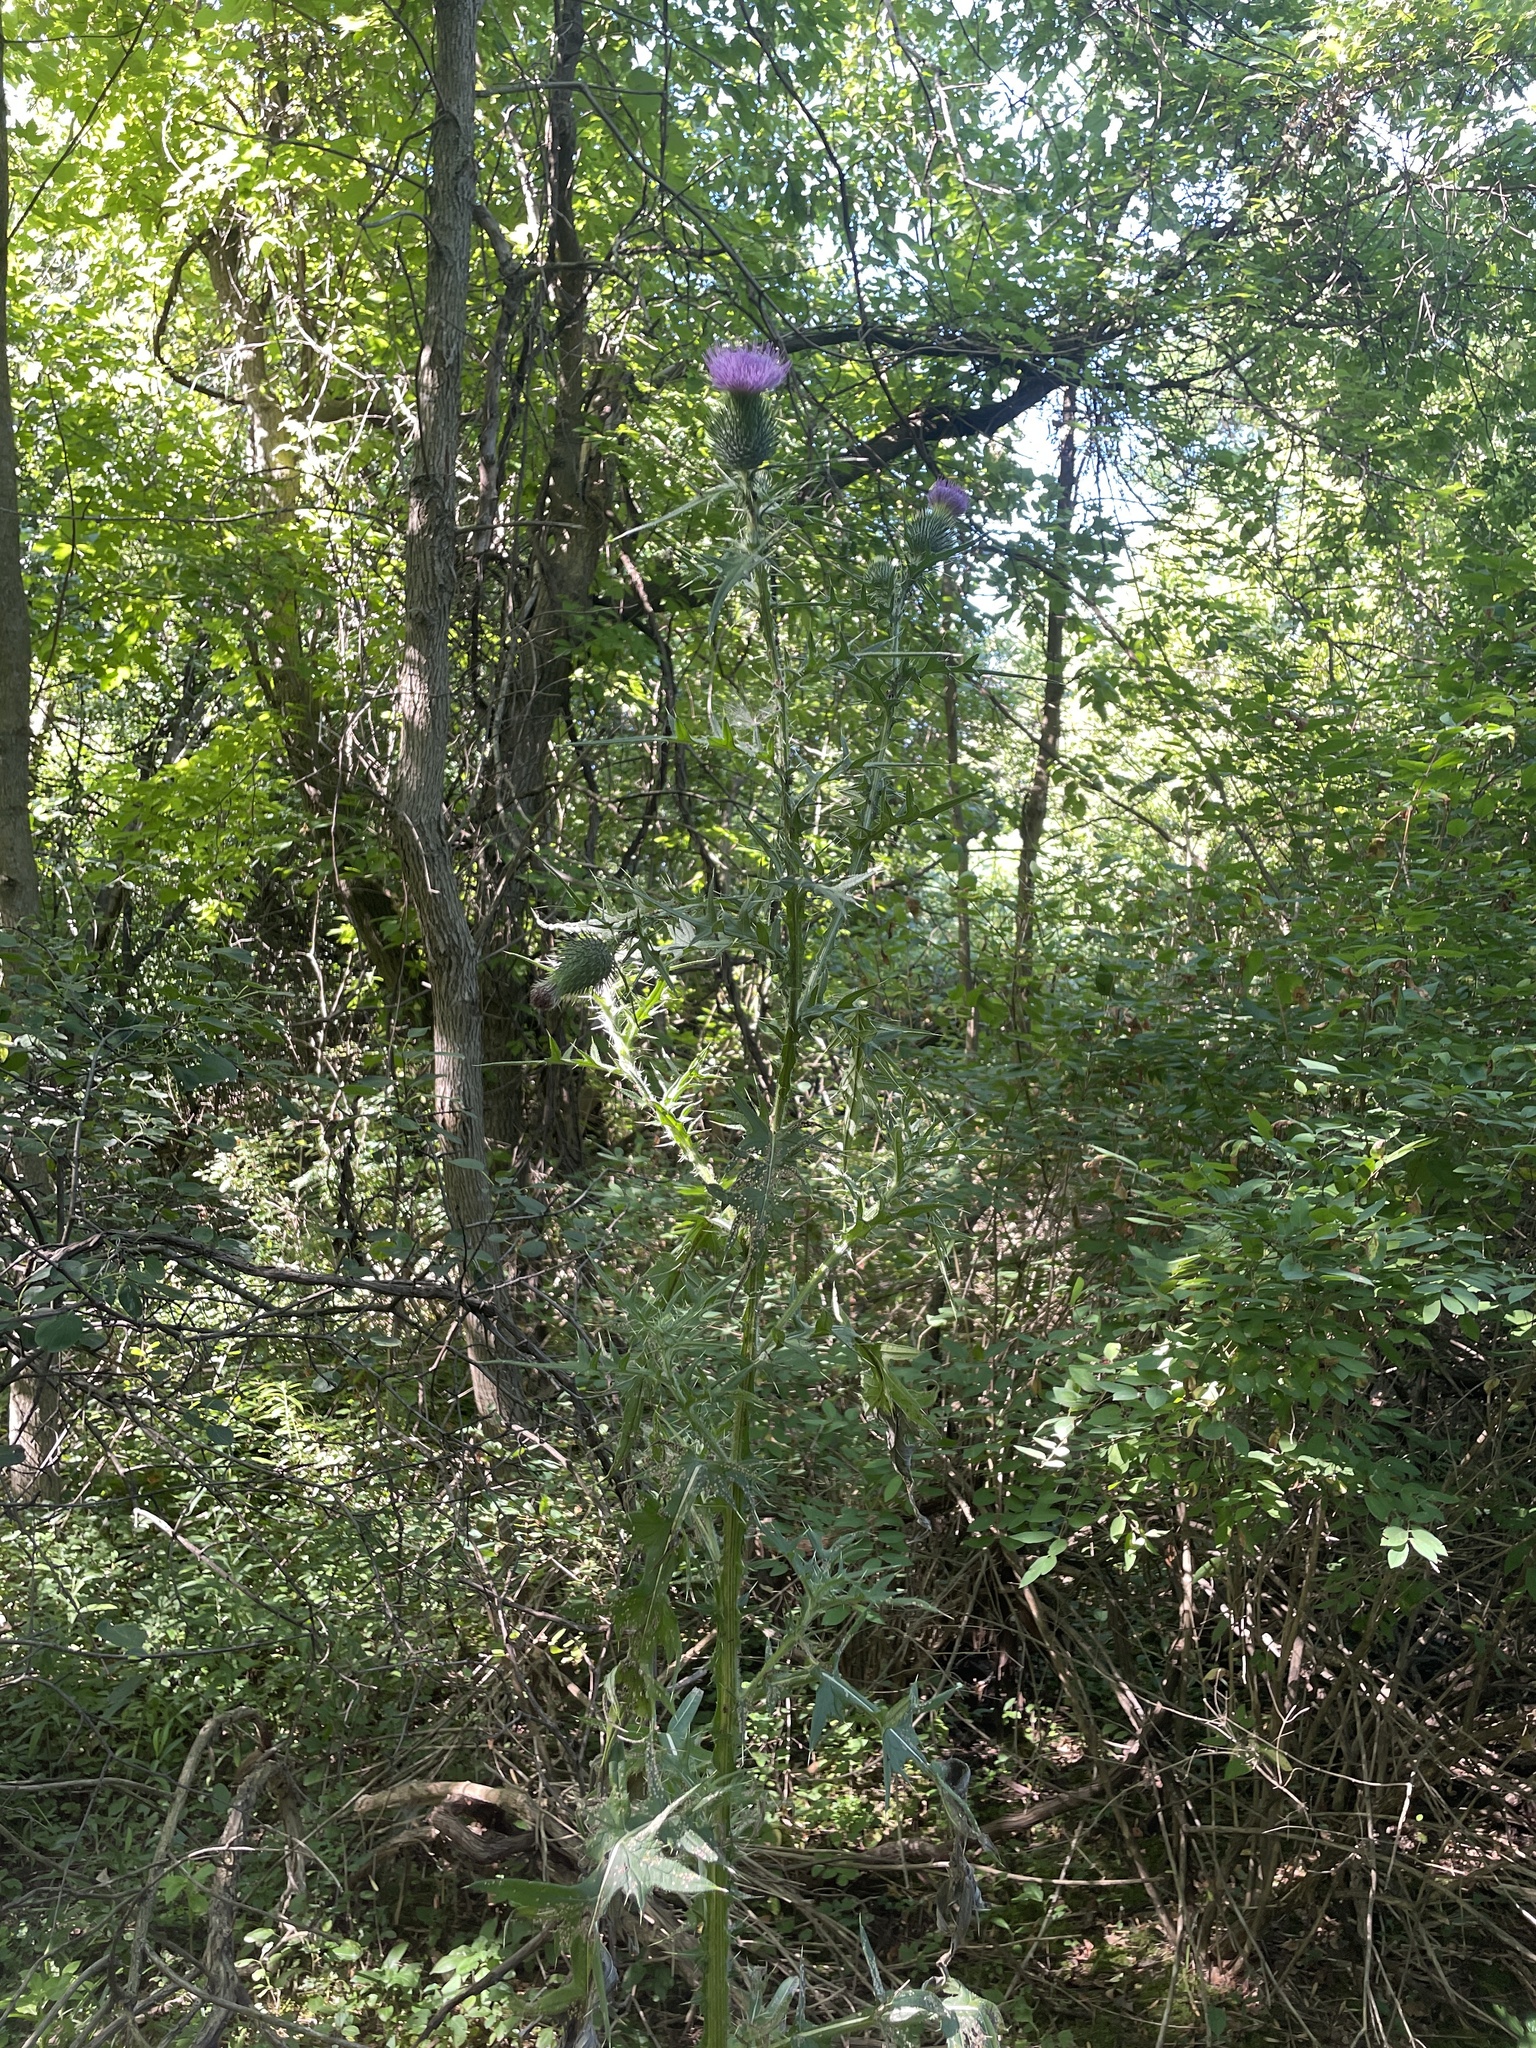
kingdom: Plantae
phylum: Tracheophyta
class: Magnoliopsida
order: Asterales
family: Asteraceae
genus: Cirsium
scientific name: Cirsium vulgare
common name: Bull thistle
